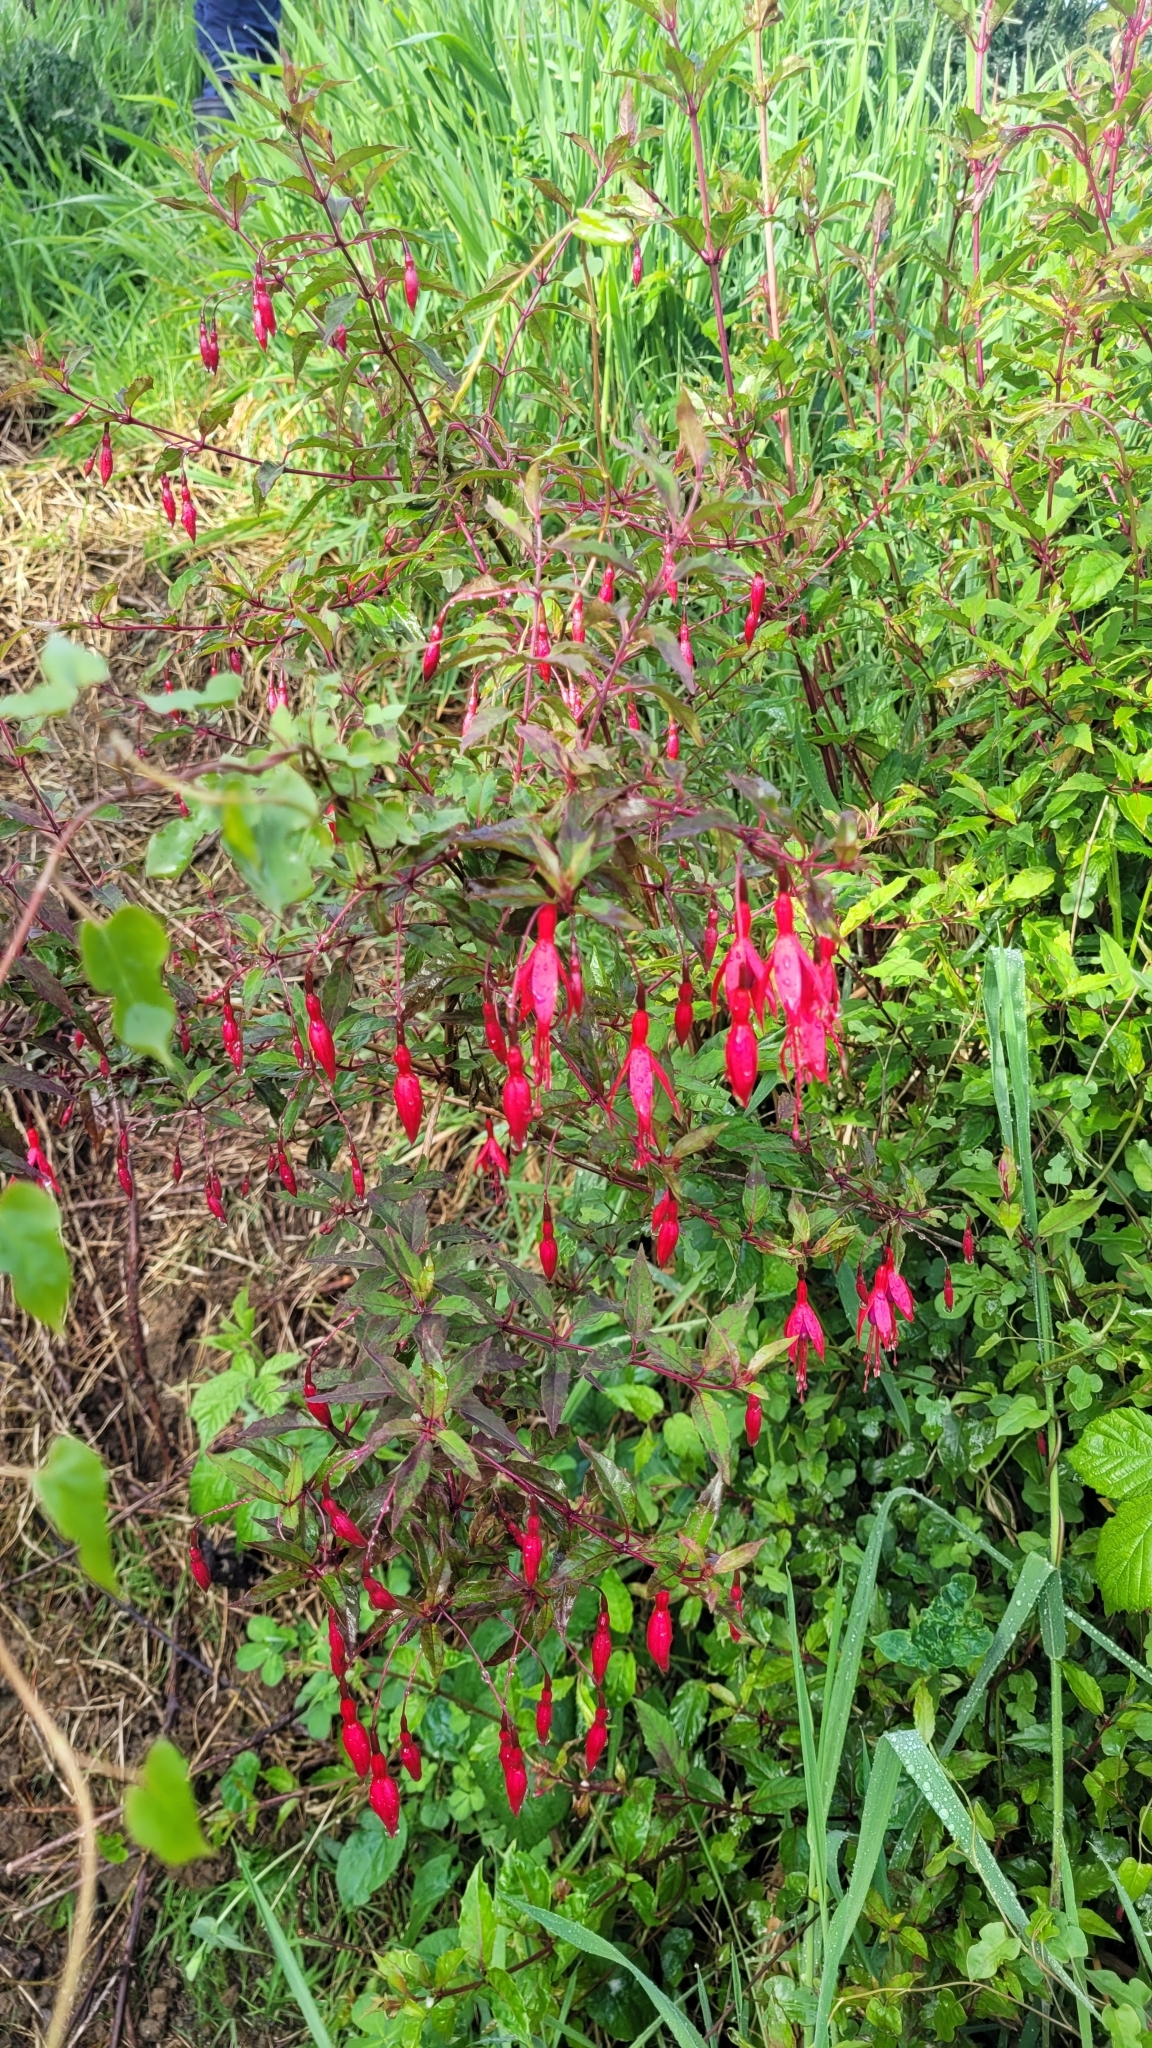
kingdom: Plantae
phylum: Tracheophyta
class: Magnoliopsida
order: Myrtales
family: Onagraceae
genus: Fuchsia
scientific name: Fuchsia magellanica
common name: Hardy fuchsia
